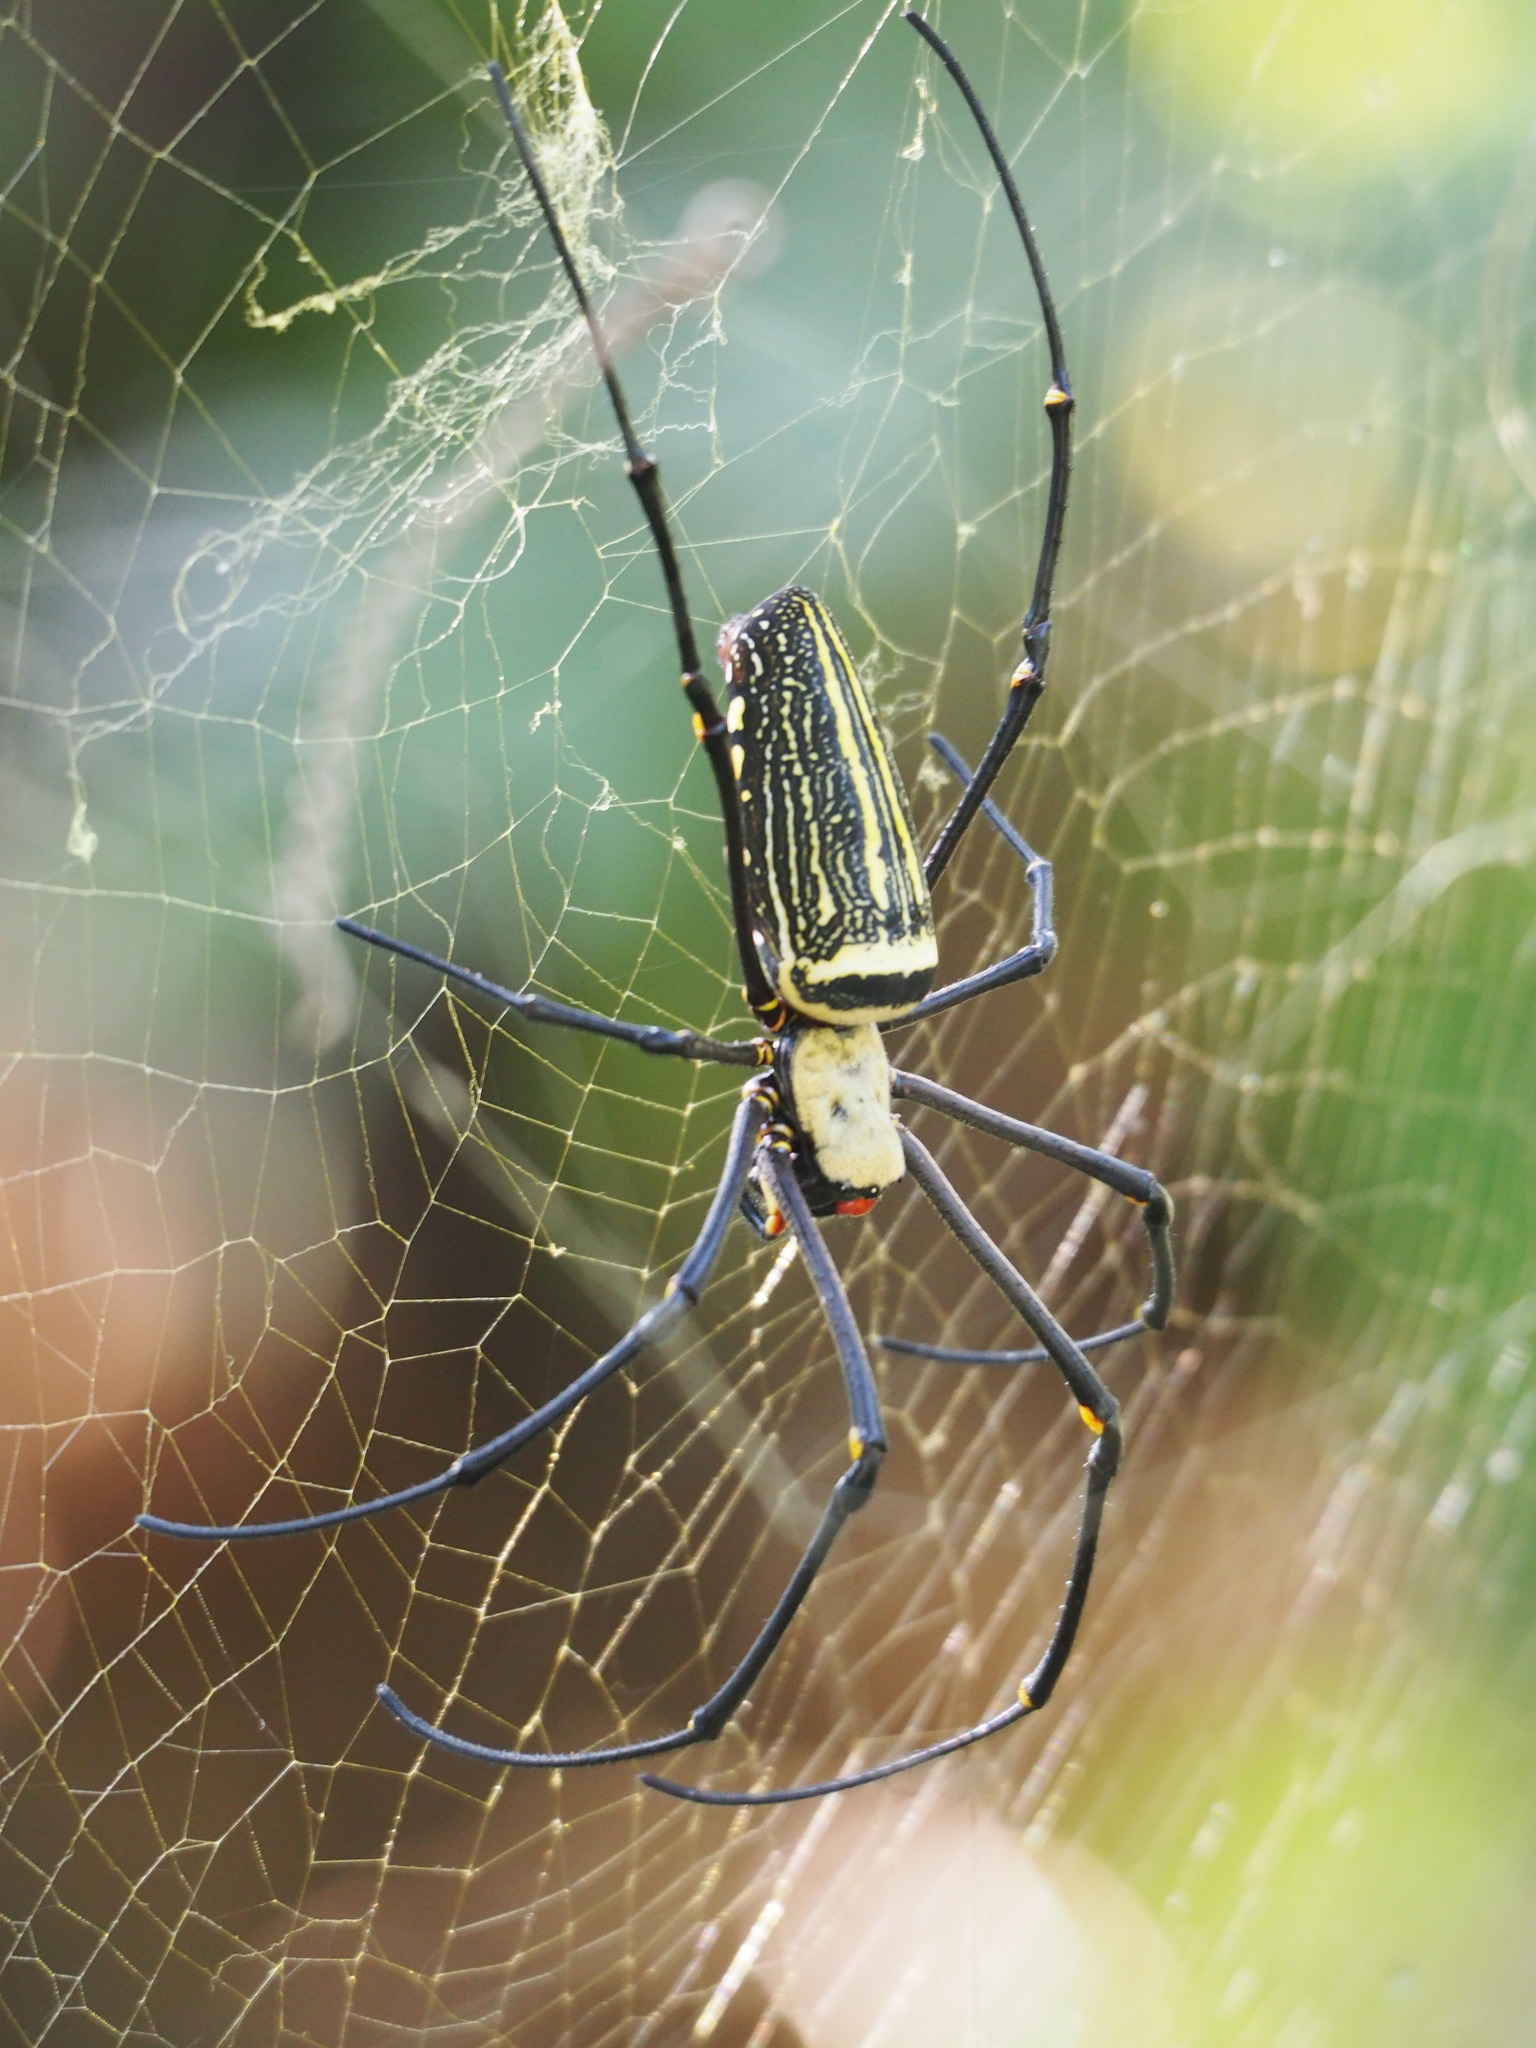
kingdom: Animalia
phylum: Arthropoda
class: Arachnida
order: Araneae
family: Araneidae
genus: Nephila
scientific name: Nephila pilipes
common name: Giant golden orb weaver
